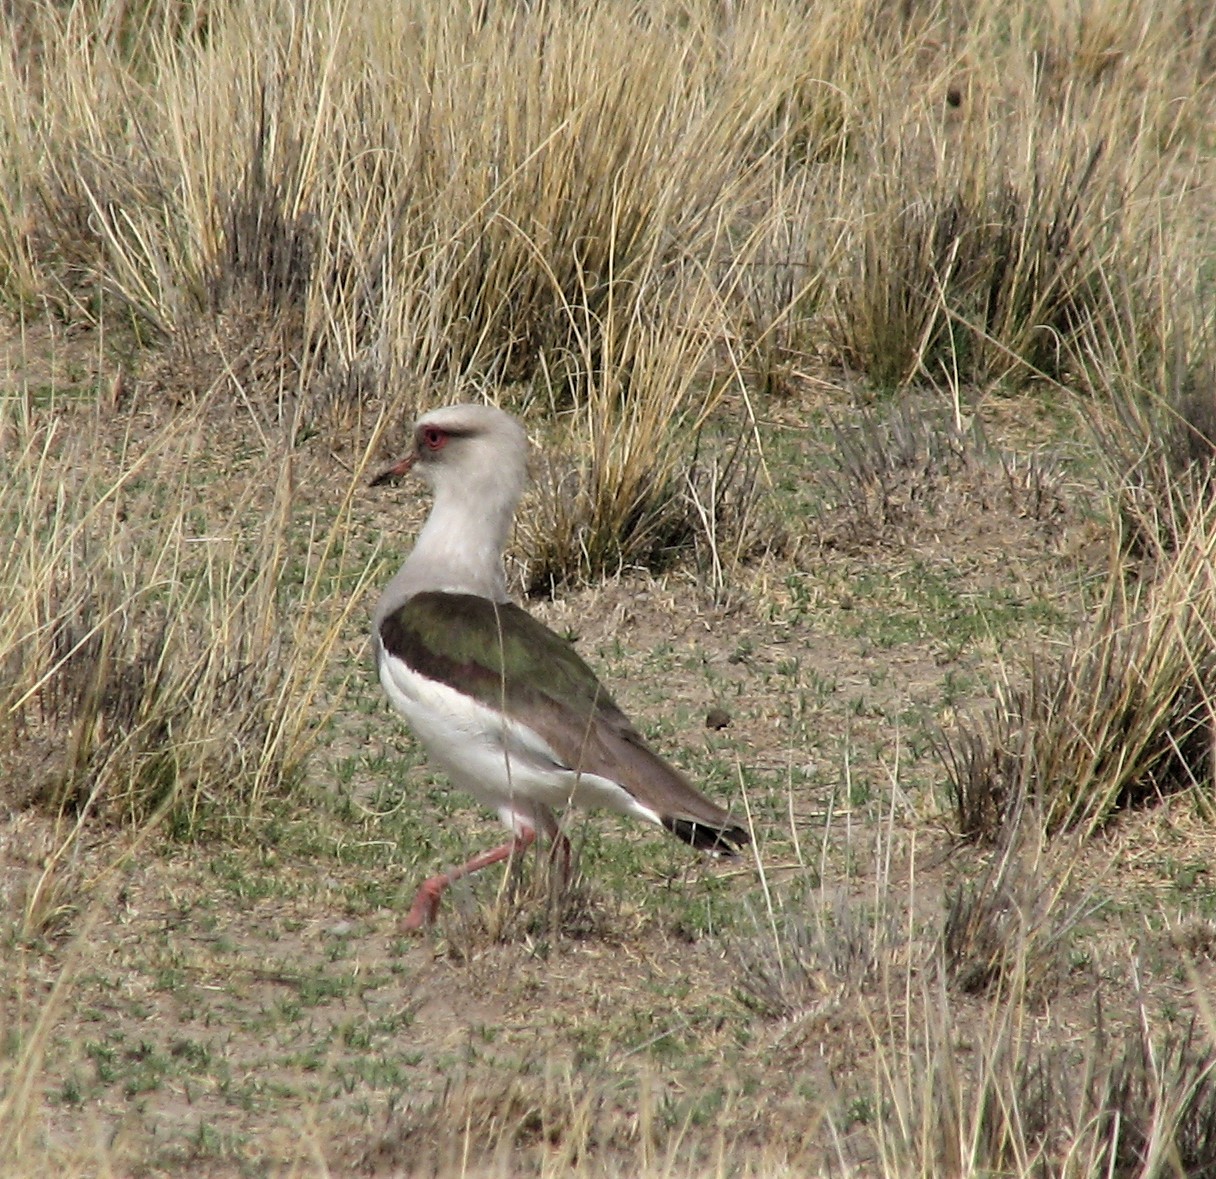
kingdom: Animalia
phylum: Chordata
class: Aves
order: Charadriiformes
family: Charadriidae
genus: Vanellus
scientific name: Vanellus resplendens
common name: Andean lapwing
